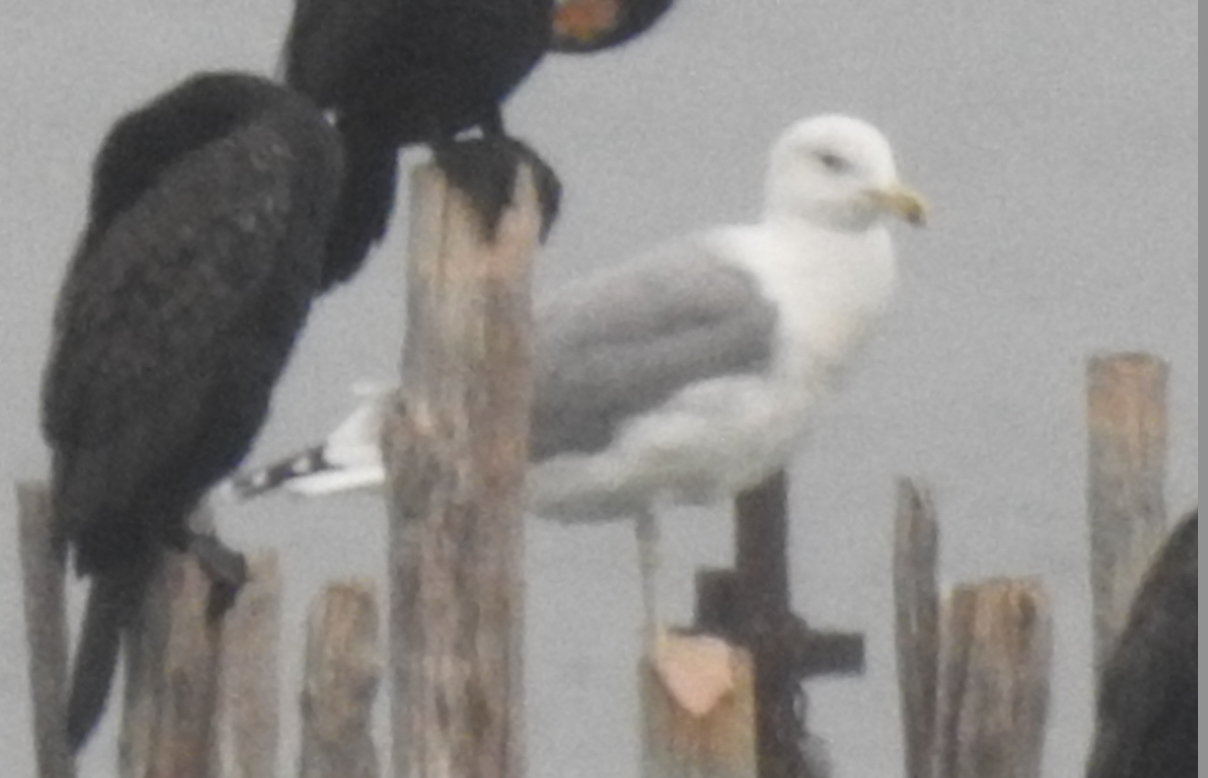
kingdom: Animalia
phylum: Chordata
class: Aves
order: Charadriiformes
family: Laridae
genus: Larus
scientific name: Larus cachinnans
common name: Caspian gull
